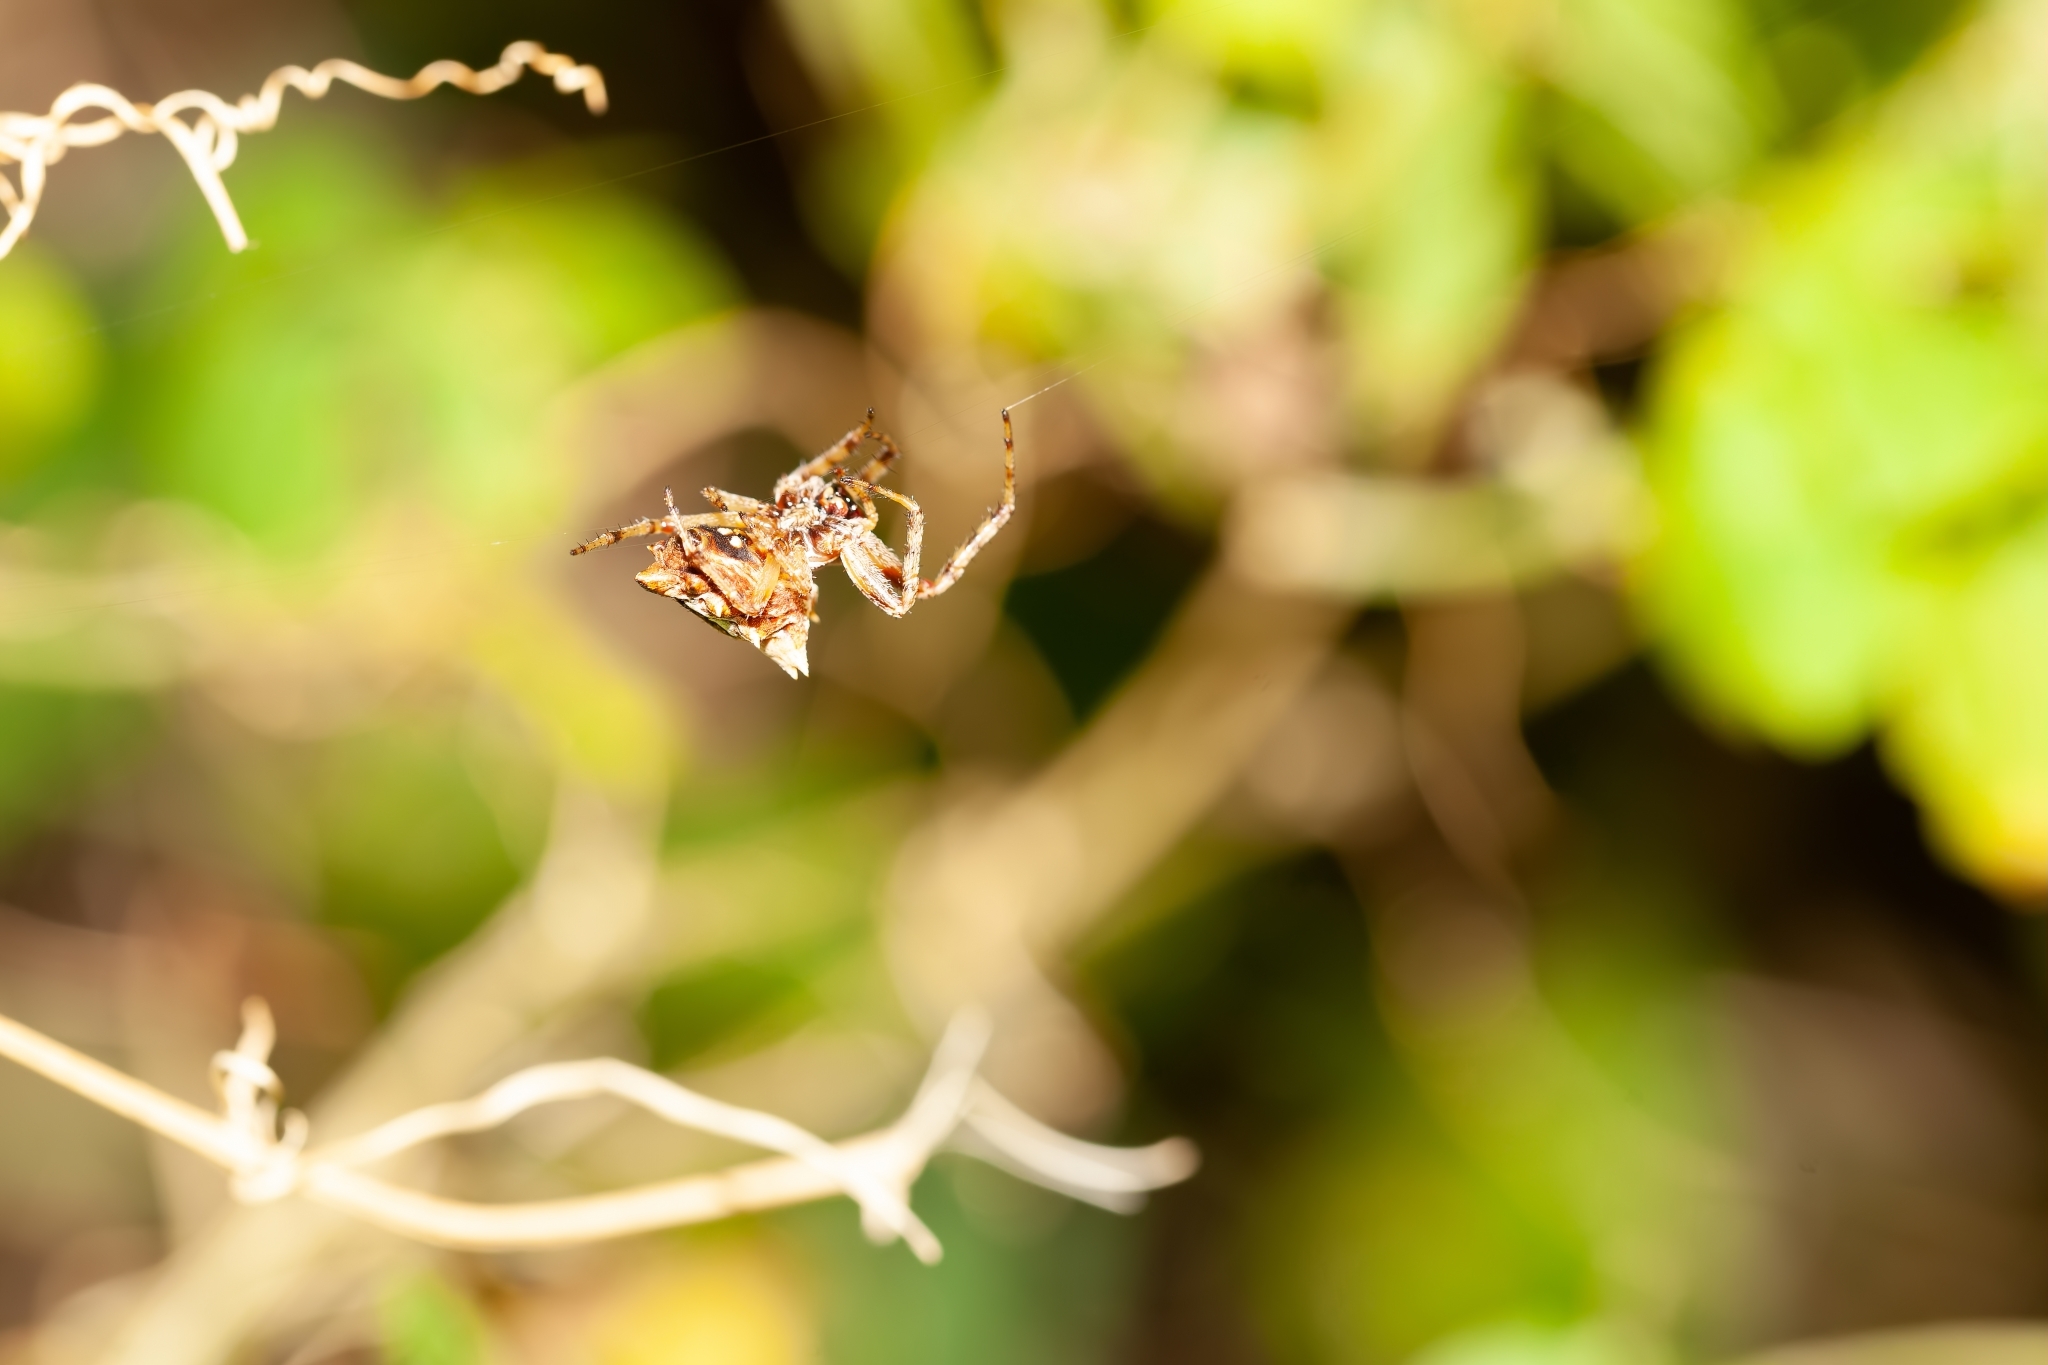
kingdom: Animalia
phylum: Arthropoda
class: Arachnida
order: Araneae
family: Araneidae
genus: Acanthepeira
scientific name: Acanthepeira venusta
